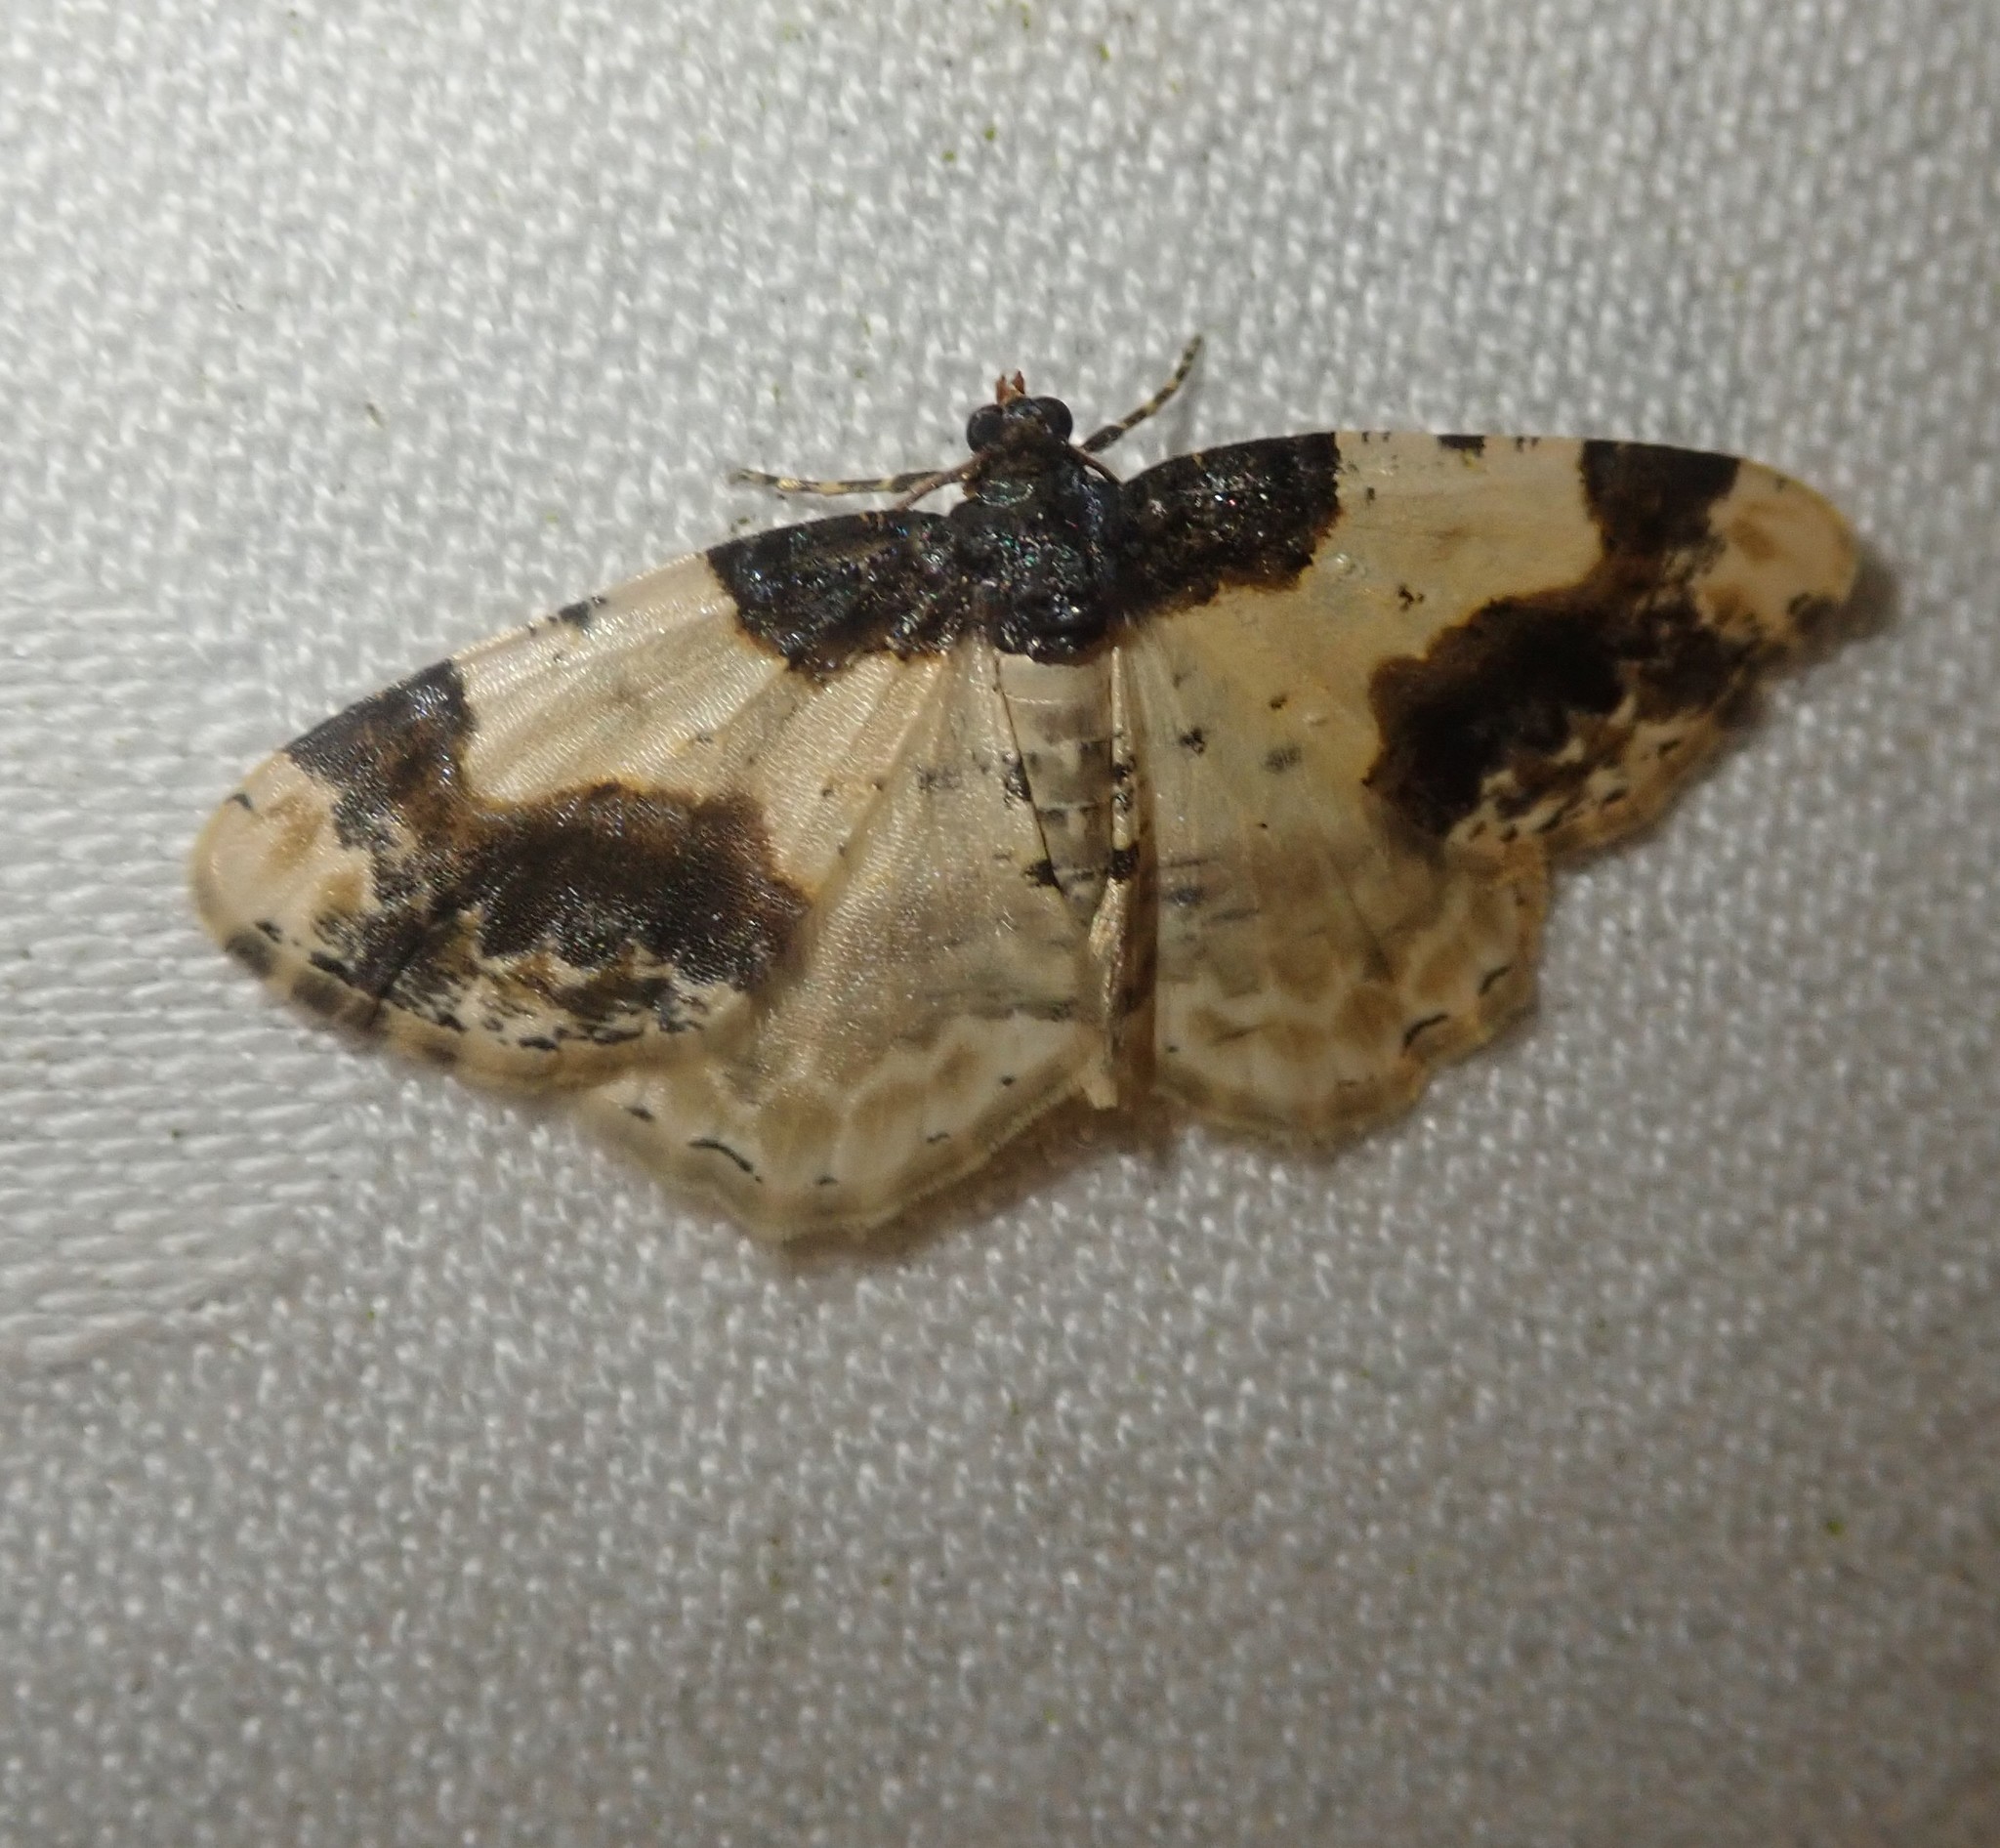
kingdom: Animalia
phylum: Arthropoda
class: Insecta
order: Lepidoptera
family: Geometridae
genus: Ligdia
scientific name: Ligdia adustata
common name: Scorched carpet
